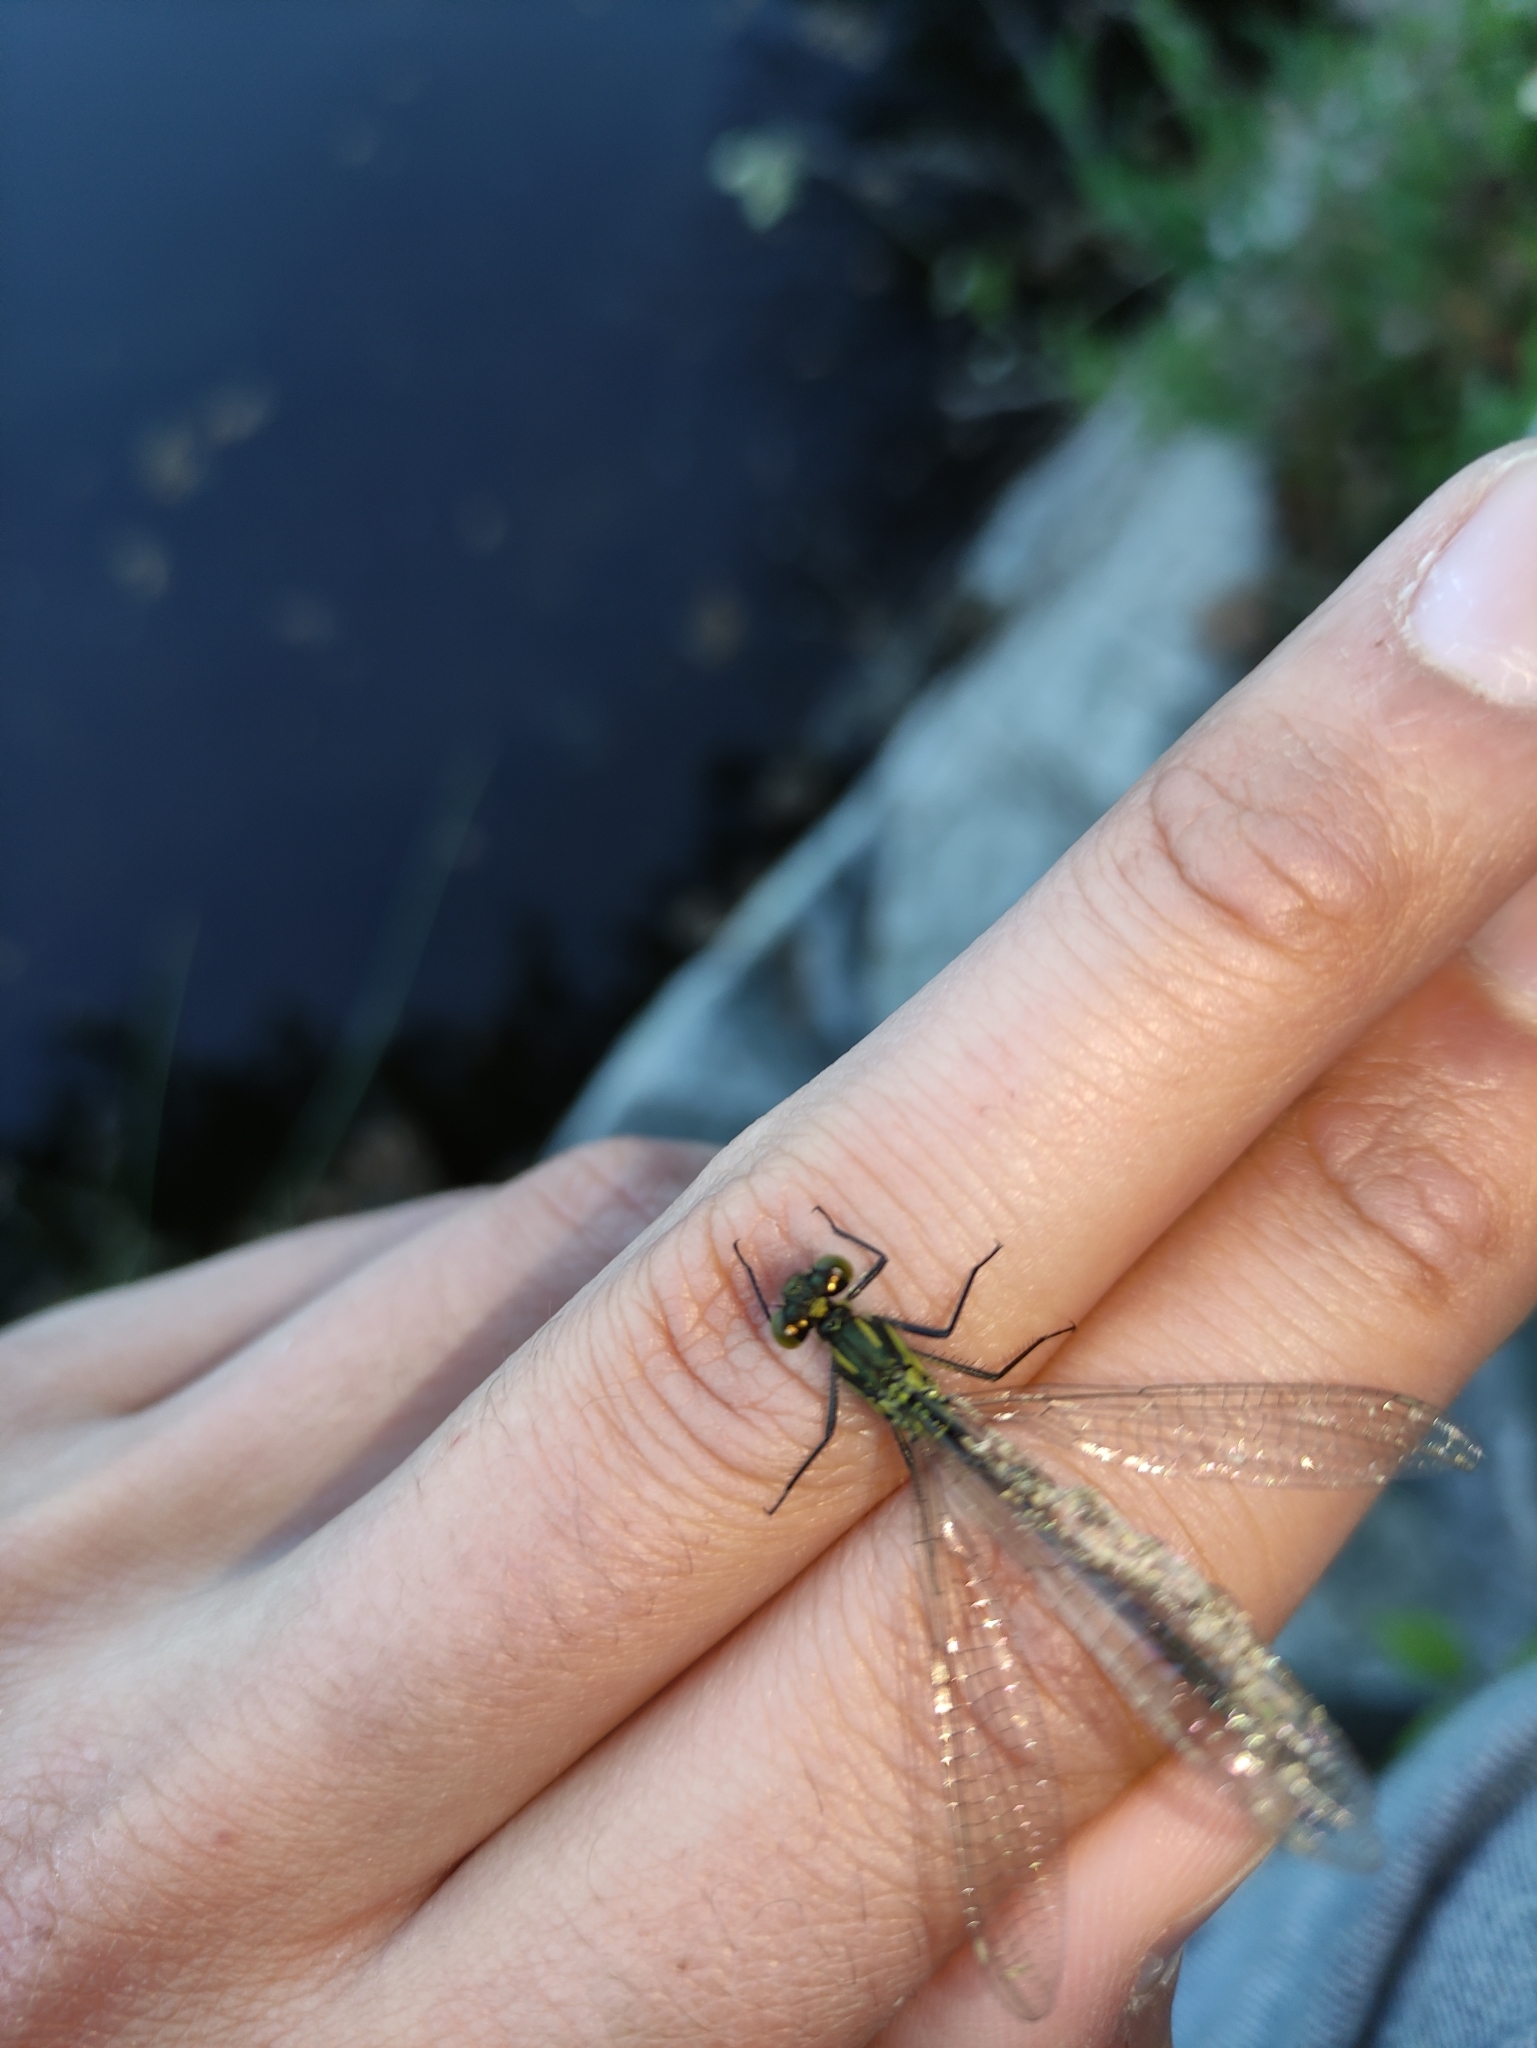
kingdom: Animalia
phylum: Arthropoda
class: Insecta
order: Odonata
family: Coenagrionidae
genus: Erythromma
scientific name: Erythromma najas
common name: Red-eyed damselfly
